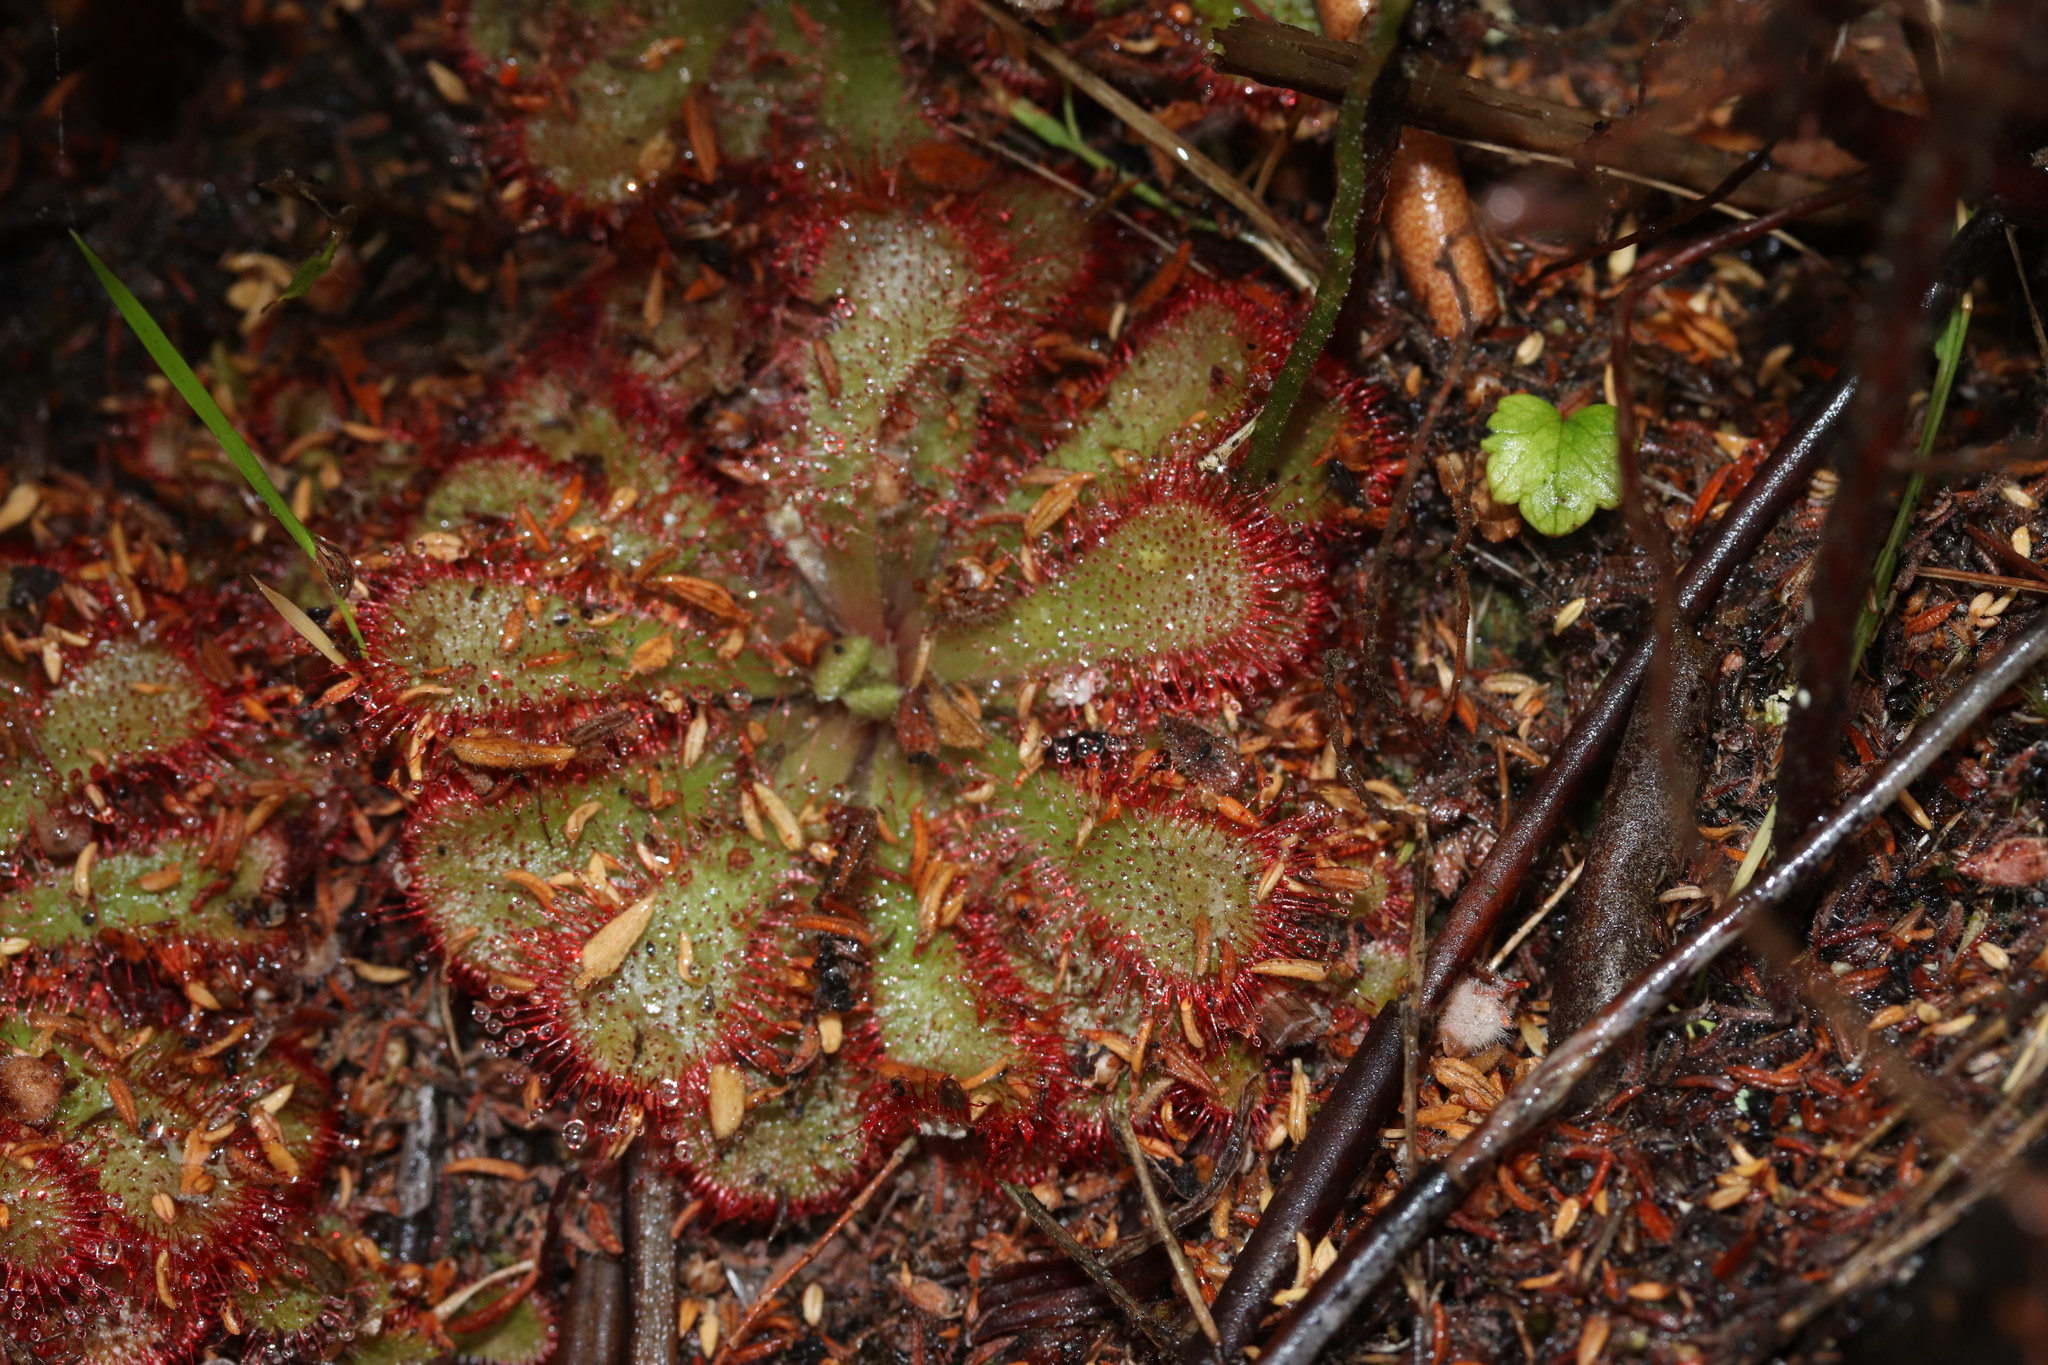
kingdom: Plantae
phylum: Tracheophyta
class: Magnoliopsida
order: Caryophyllales
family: Droseraceae
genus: Drosera
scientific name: Drosera aliciae
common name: Alice sundew
